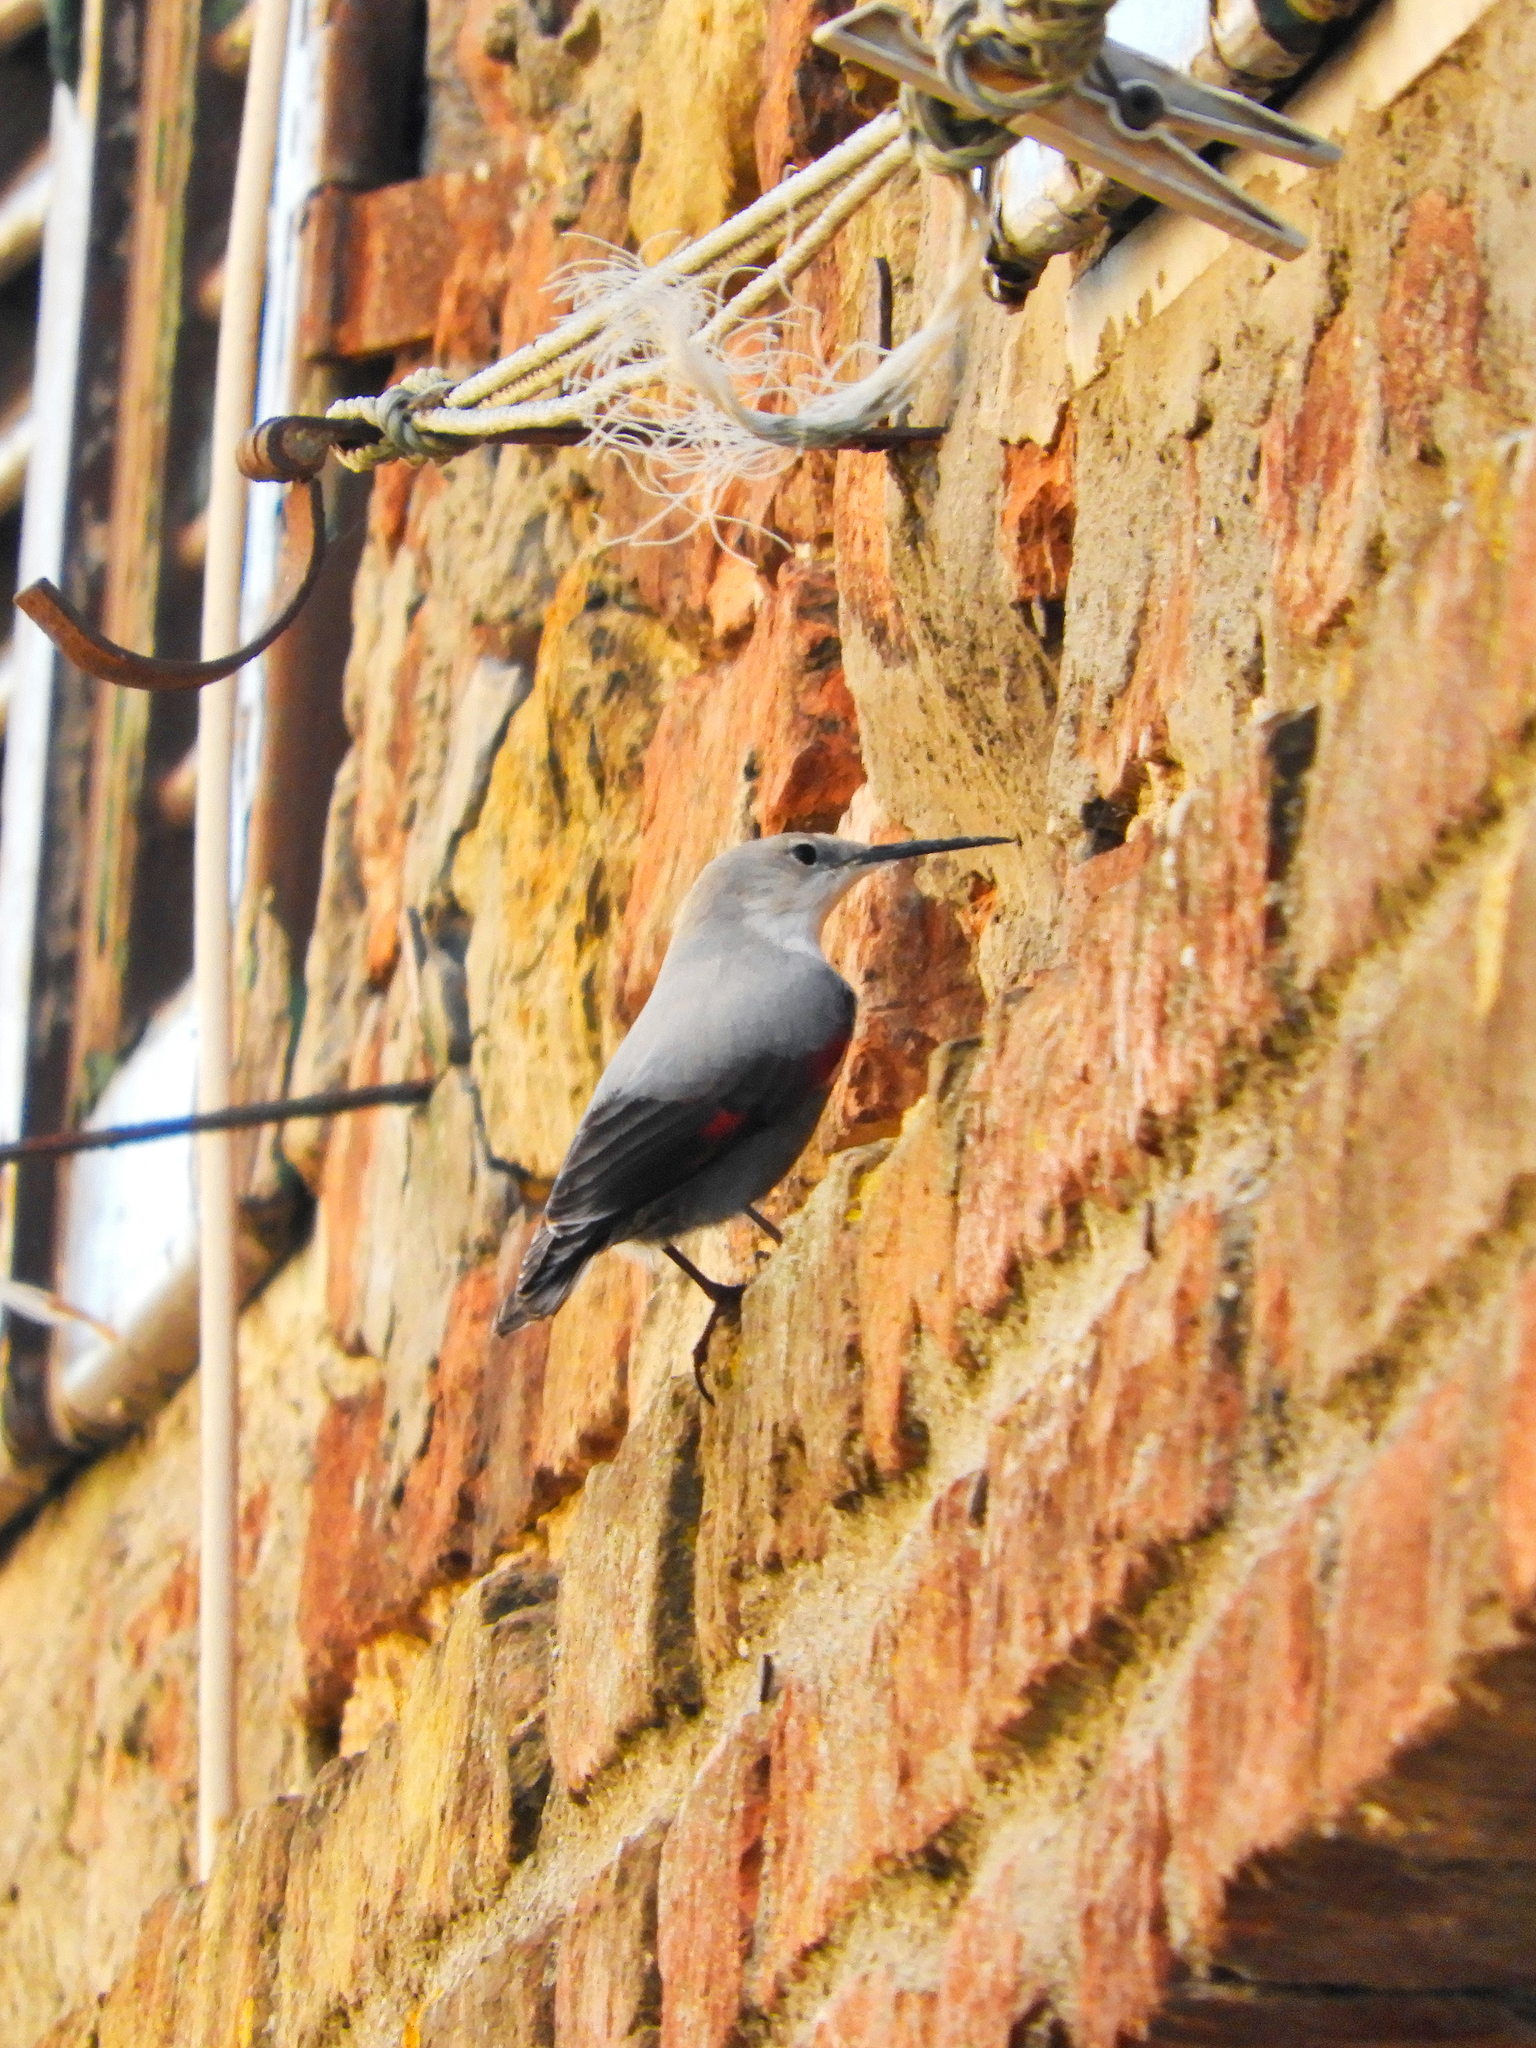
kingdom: Animalia
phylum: Chordata
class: Aves
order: Passeriformes
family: Tichodromidae
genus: Tichodroma
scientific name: Tichodroma muraria
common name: Wallcreeper
